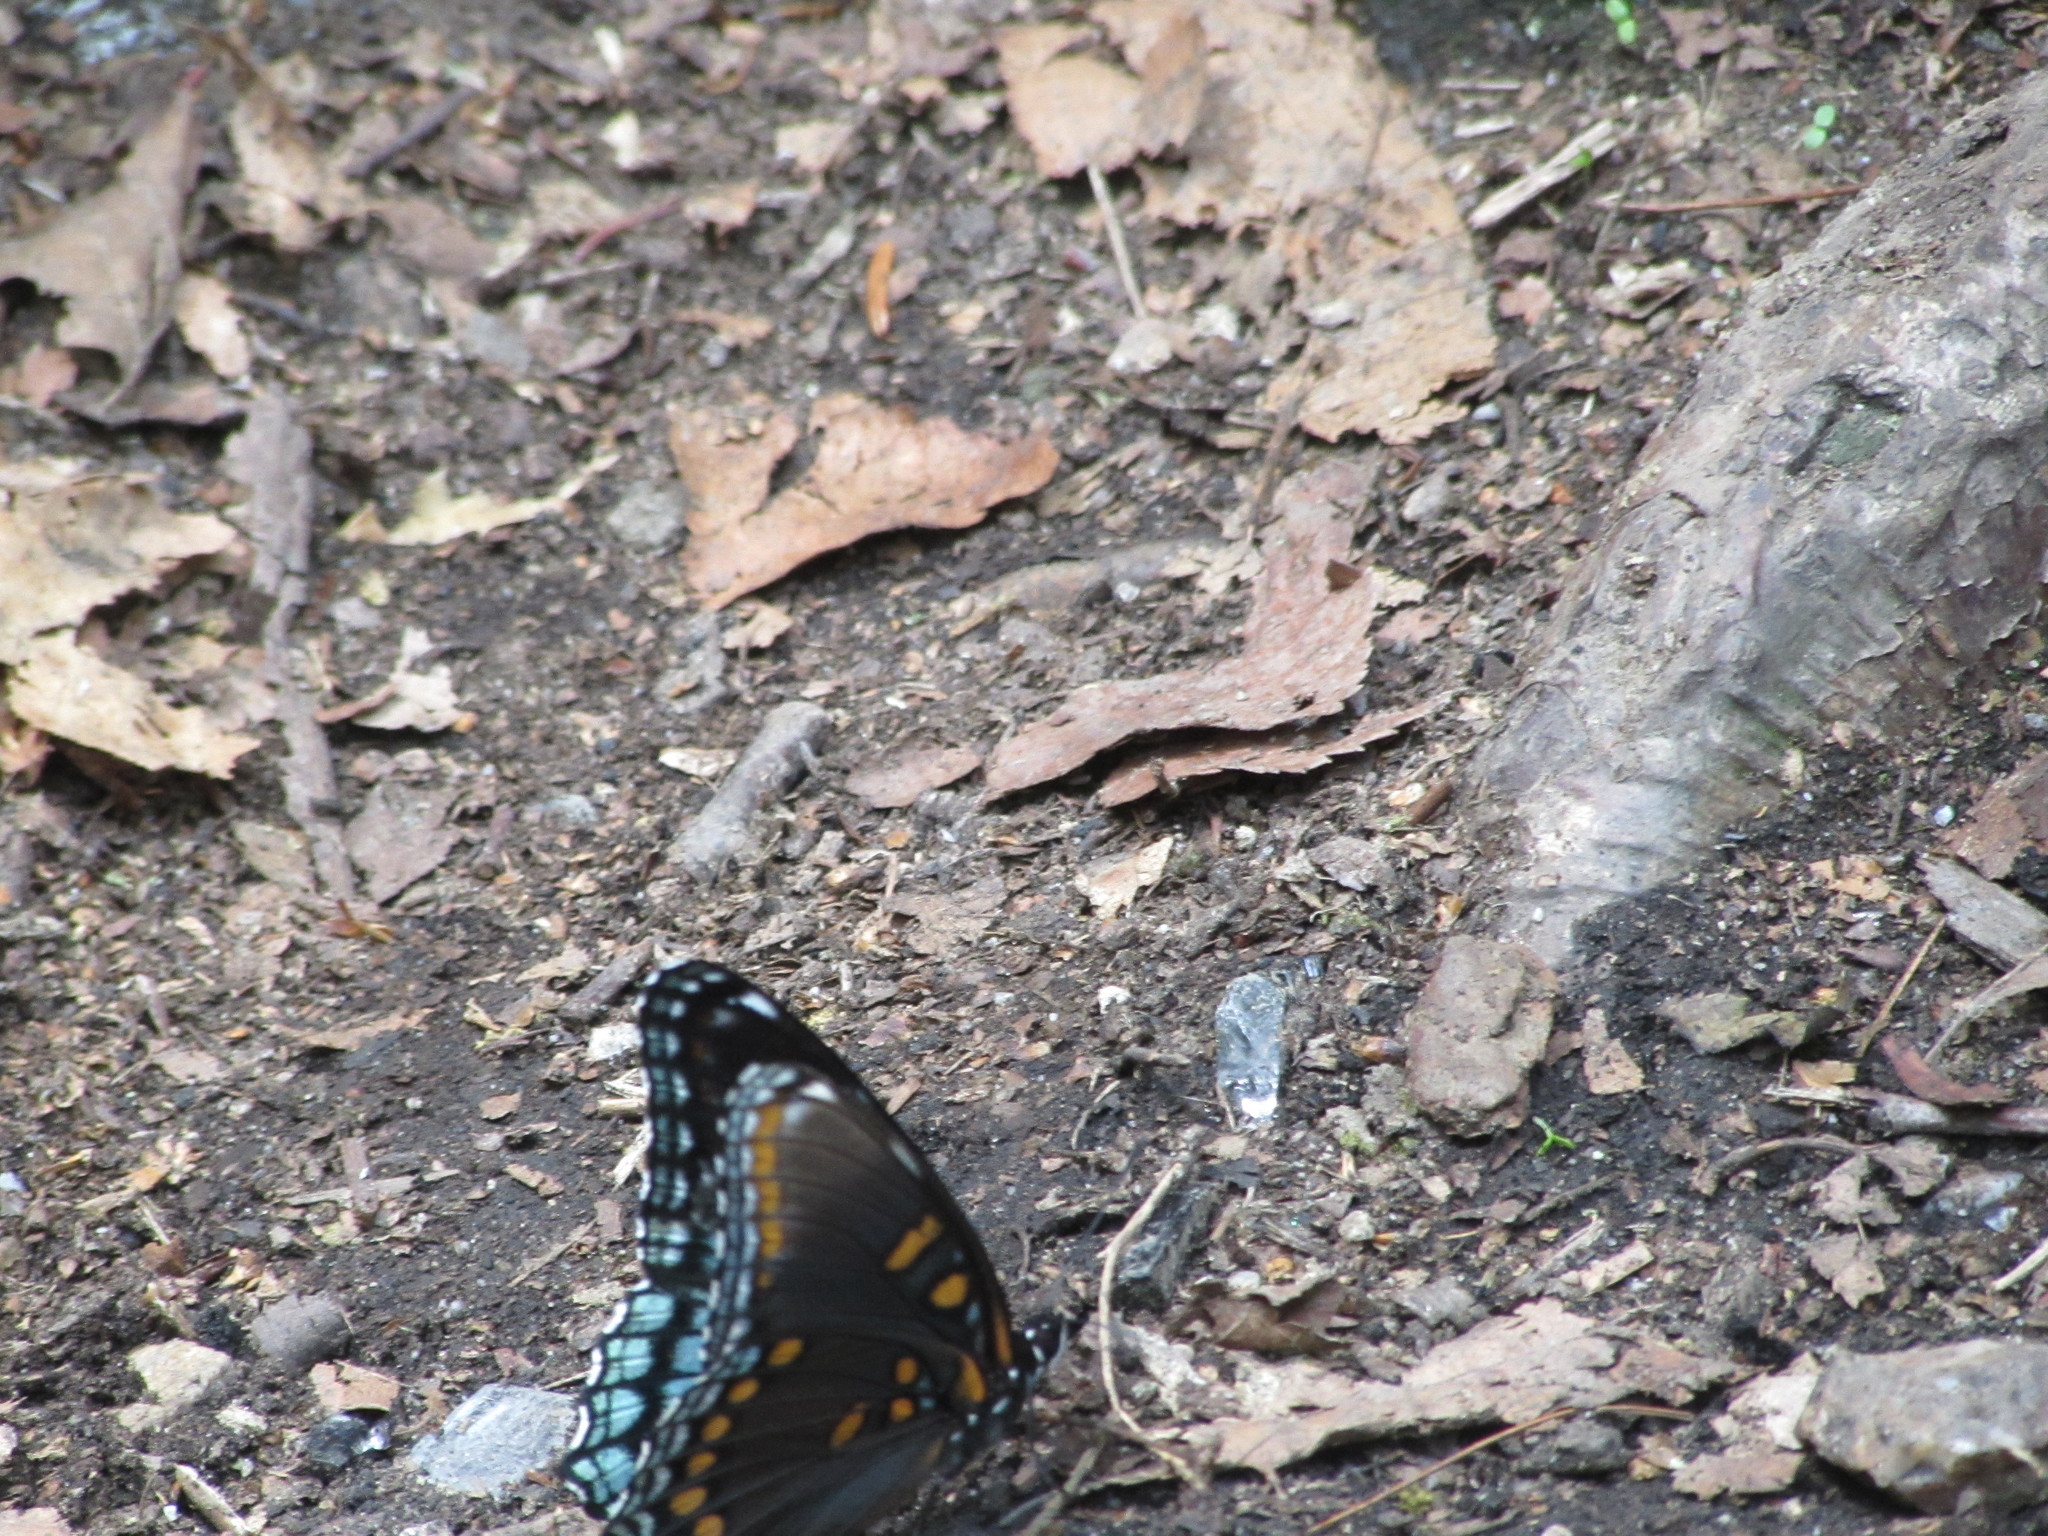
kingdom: Animalia
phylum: Arthropoda
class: Insecta
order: Lepidoptera
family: Nymphalidae
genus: Limenitis
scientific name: Limenitis astyanax
